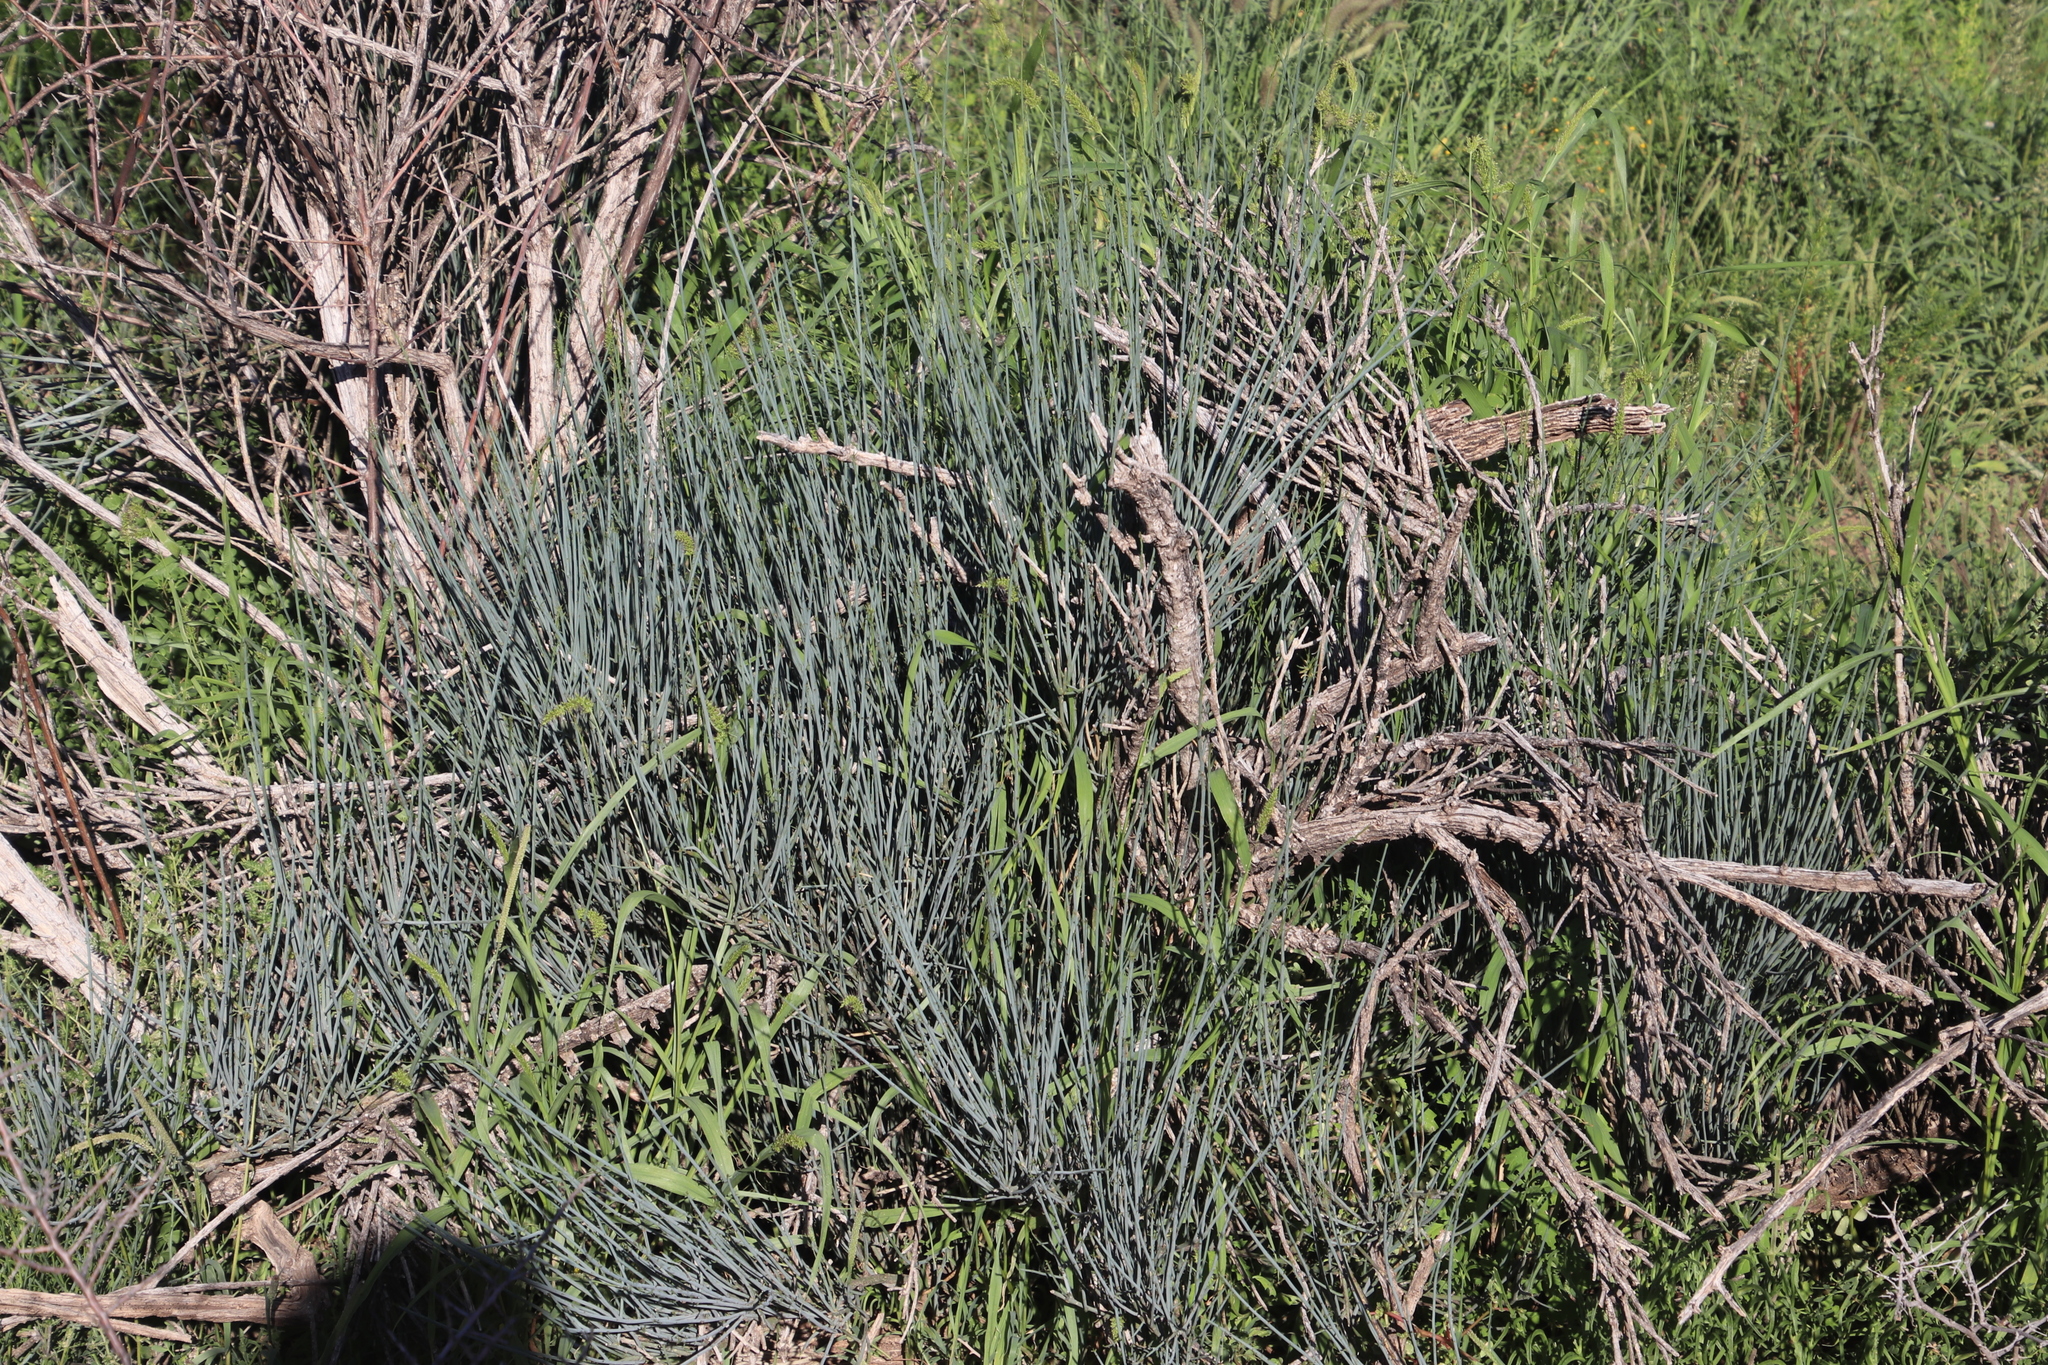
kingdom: Plantae
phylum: Tracheophyta
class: Magnoliopsida
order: Brassicales
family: Capparaceae
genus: Cadaba
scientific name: Cadaba aphylla
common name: Black storm
